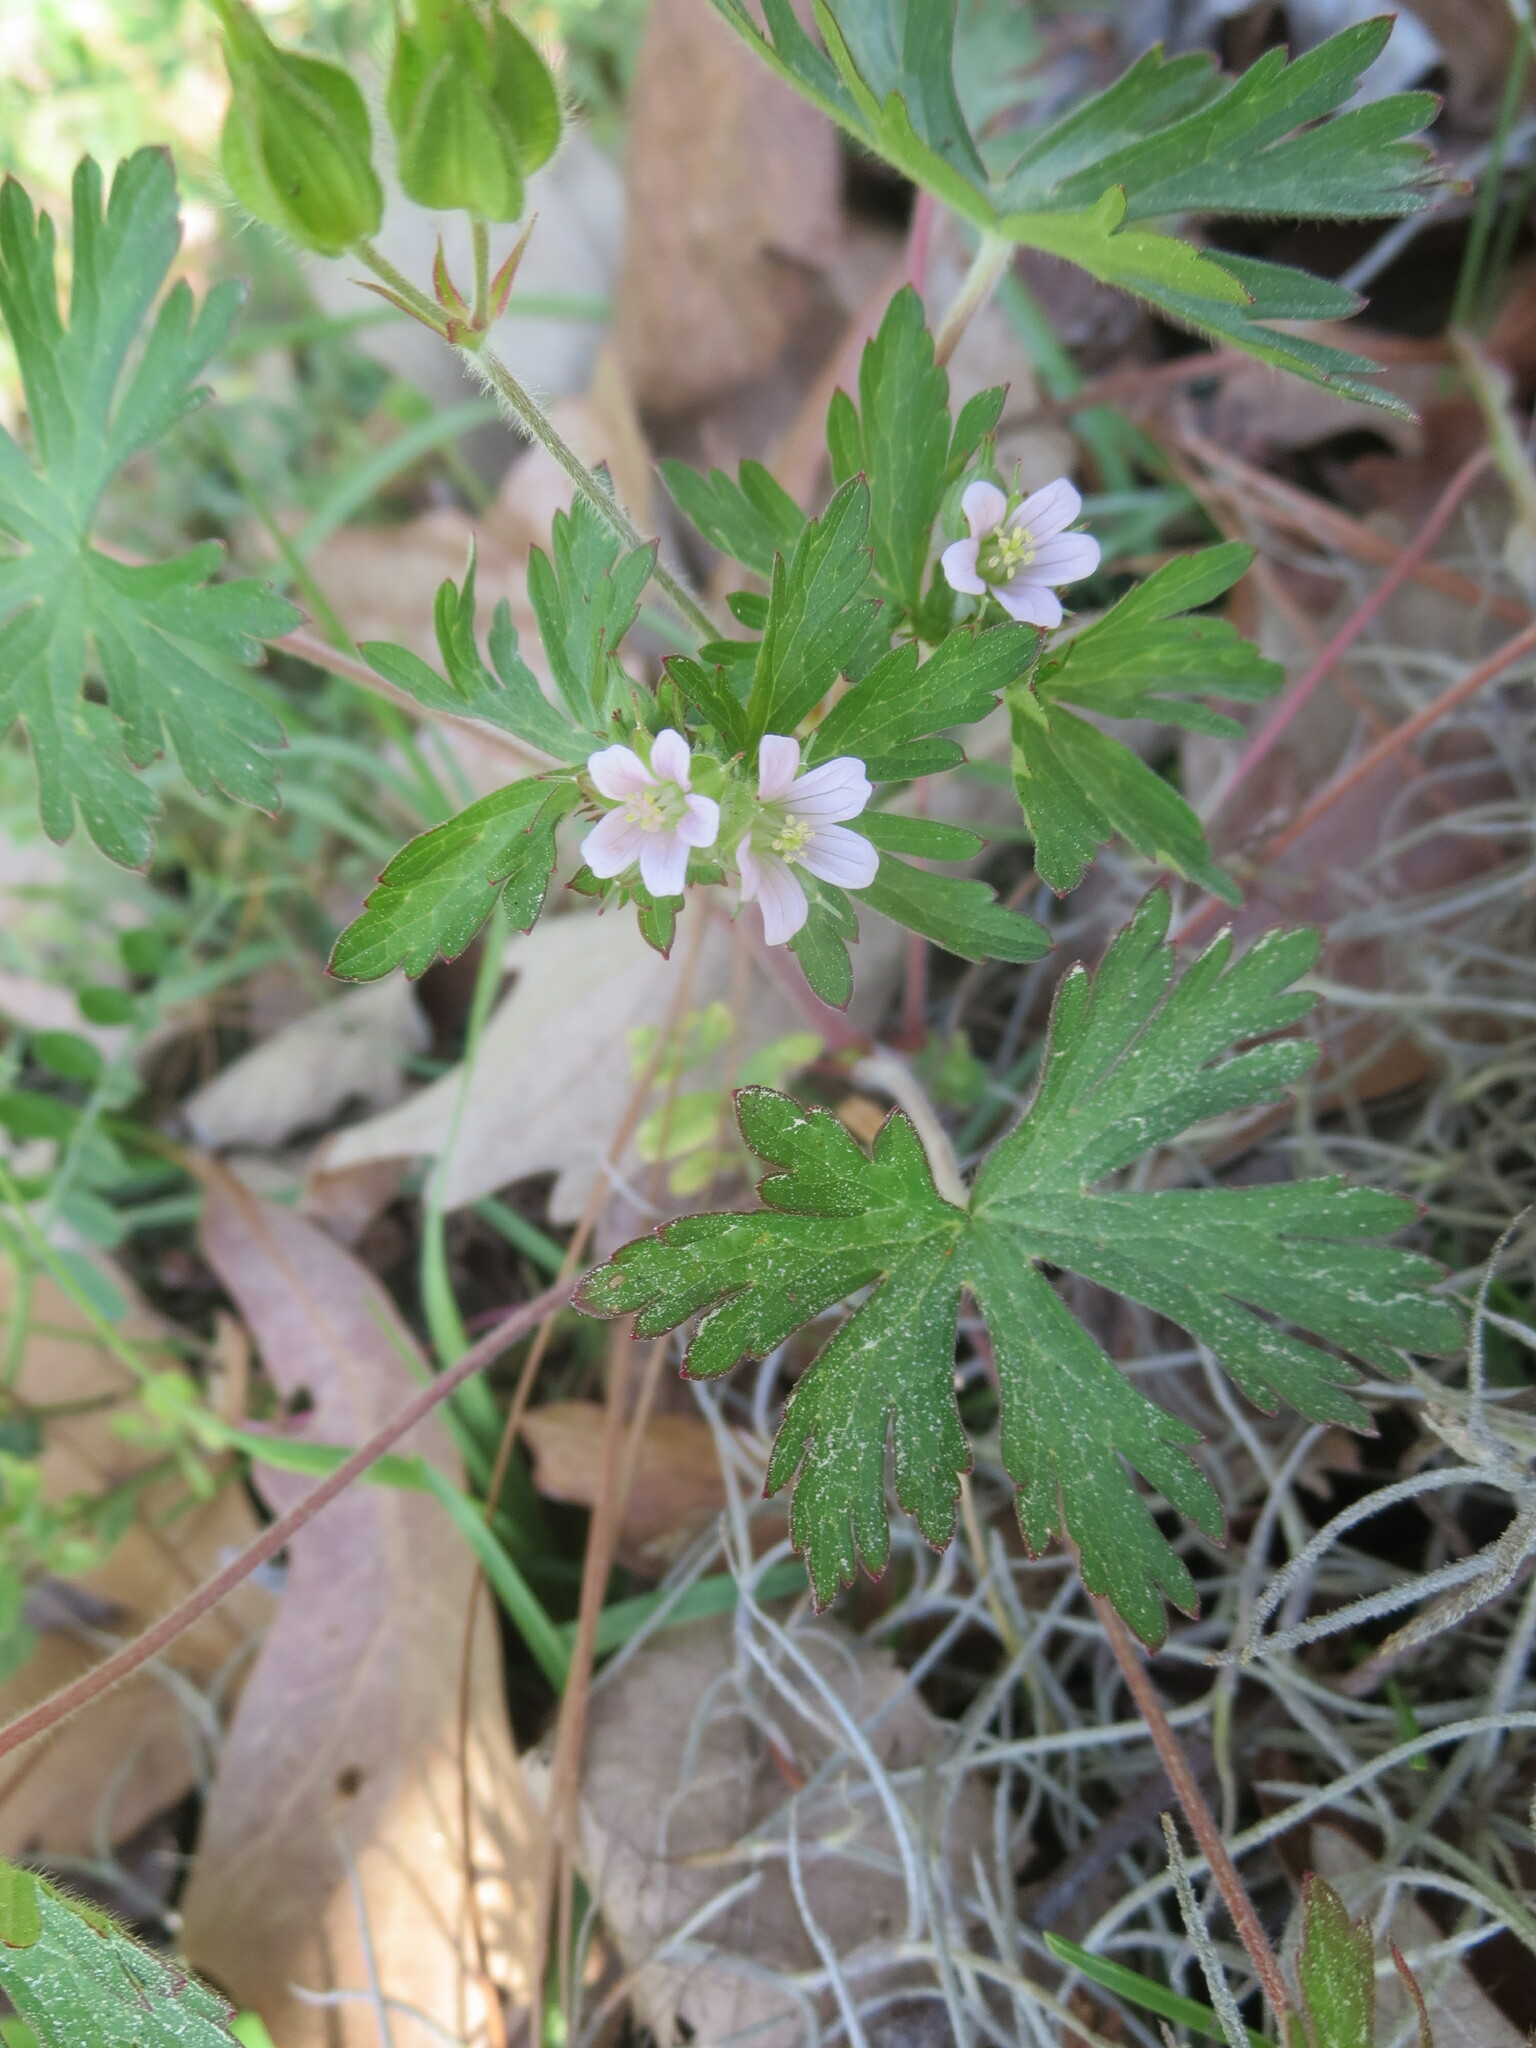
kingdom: Plantae
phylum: Tracheophyta
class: Magnoliopsida
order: Geraniales
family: Geraniaceae
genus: Geranium
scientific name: Geranium carolinianum
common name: Carolina crane's-bill
